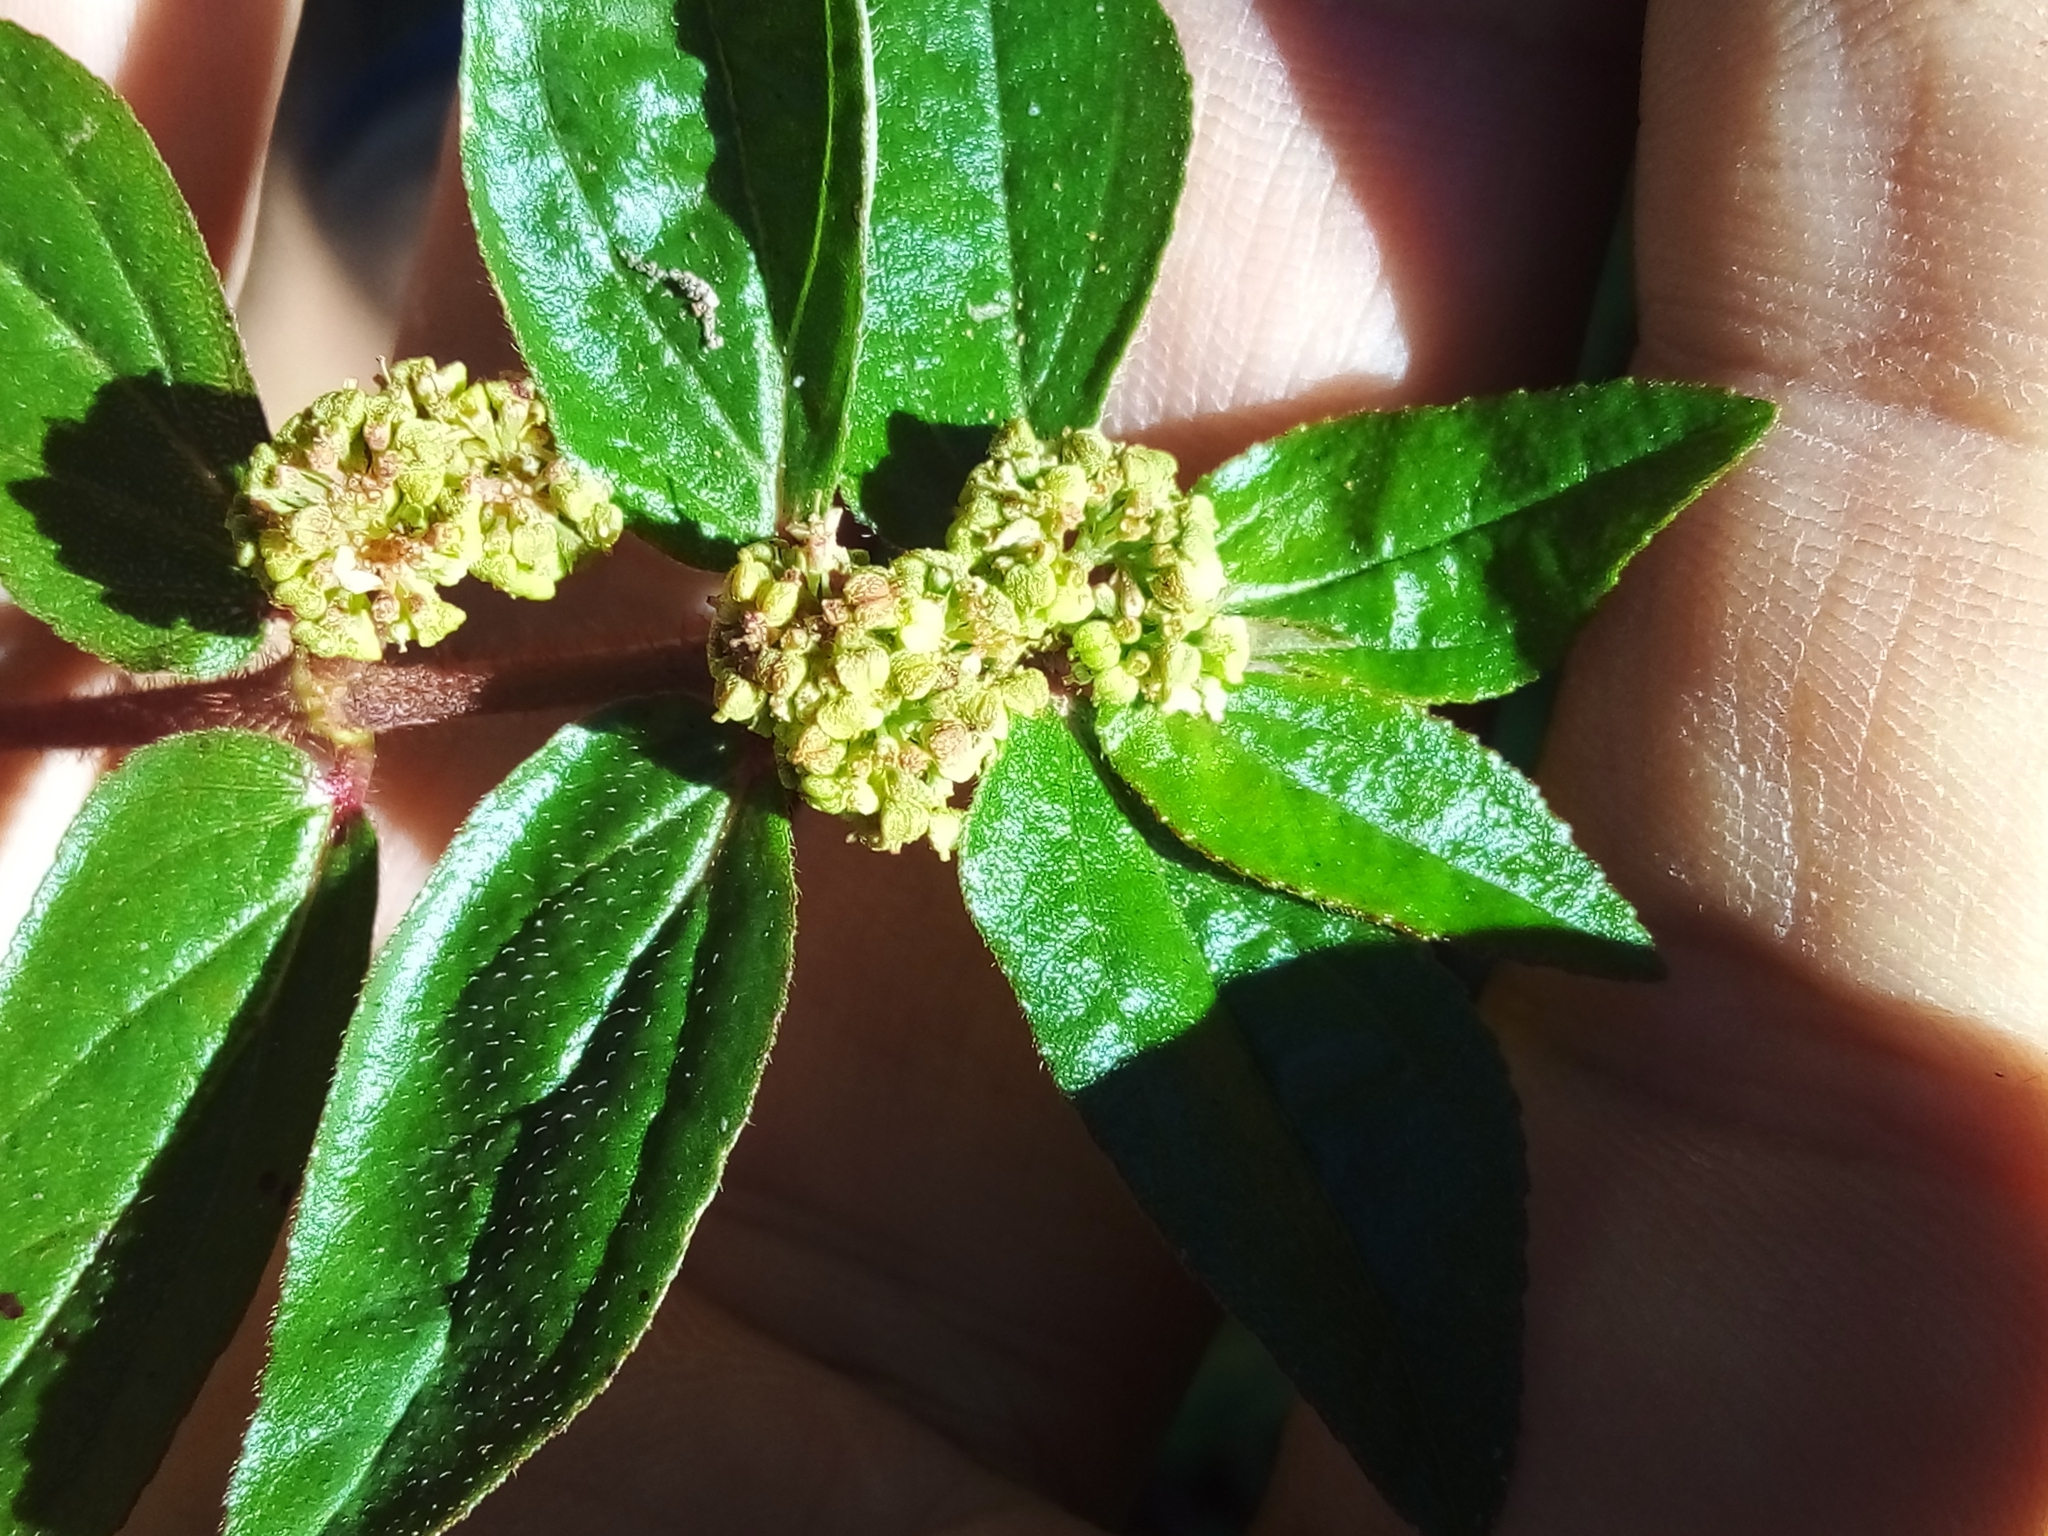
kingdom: Plantae
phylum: Tracheophyta
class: Magnoliopsida
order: Malpighiales
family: Euphorbiaceae
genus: Euphorbia
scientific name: Euphorbia hirta
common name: Pillpod sandmat
